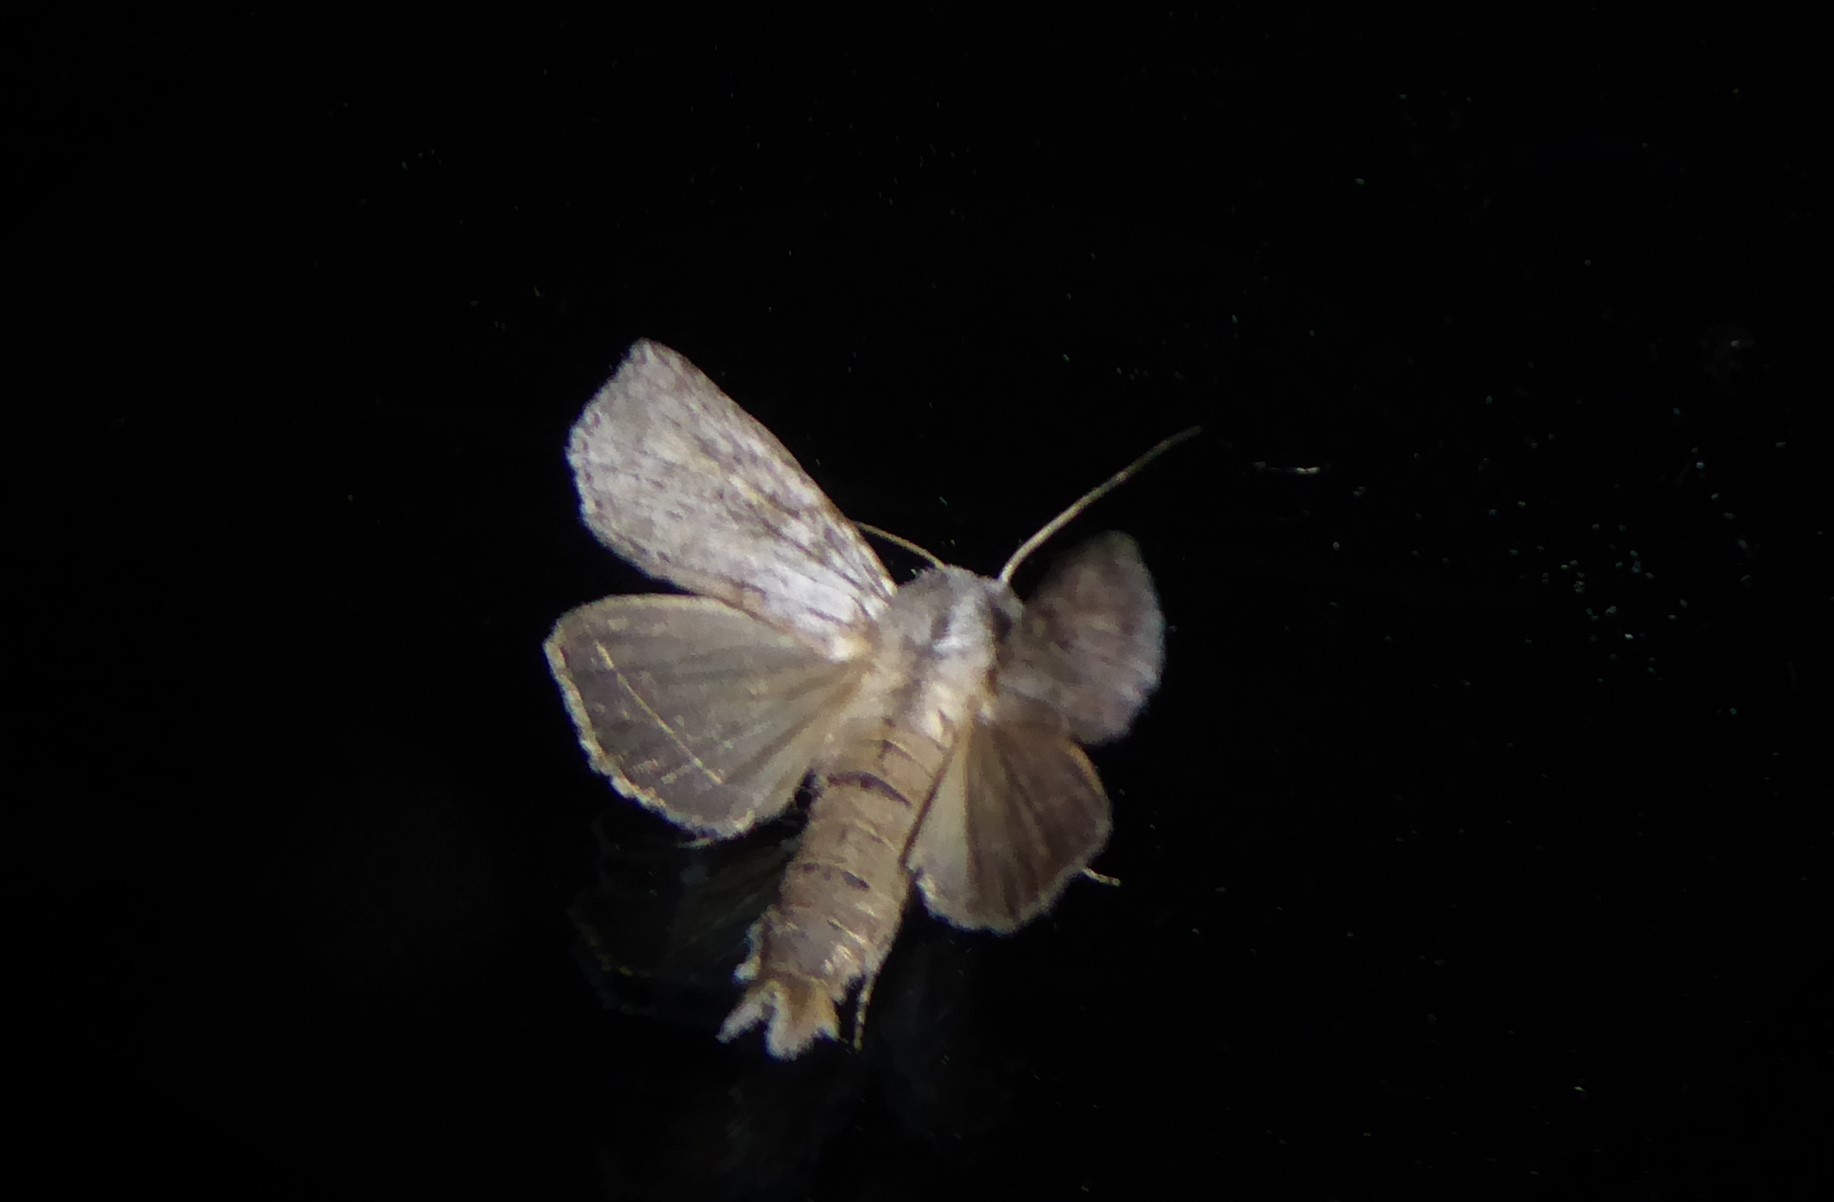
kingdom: Animalia
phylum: Arthropoda
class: Insecta
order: Lepidoptera
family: Noctuidae
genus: Physetica
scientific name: Physetica phricias
